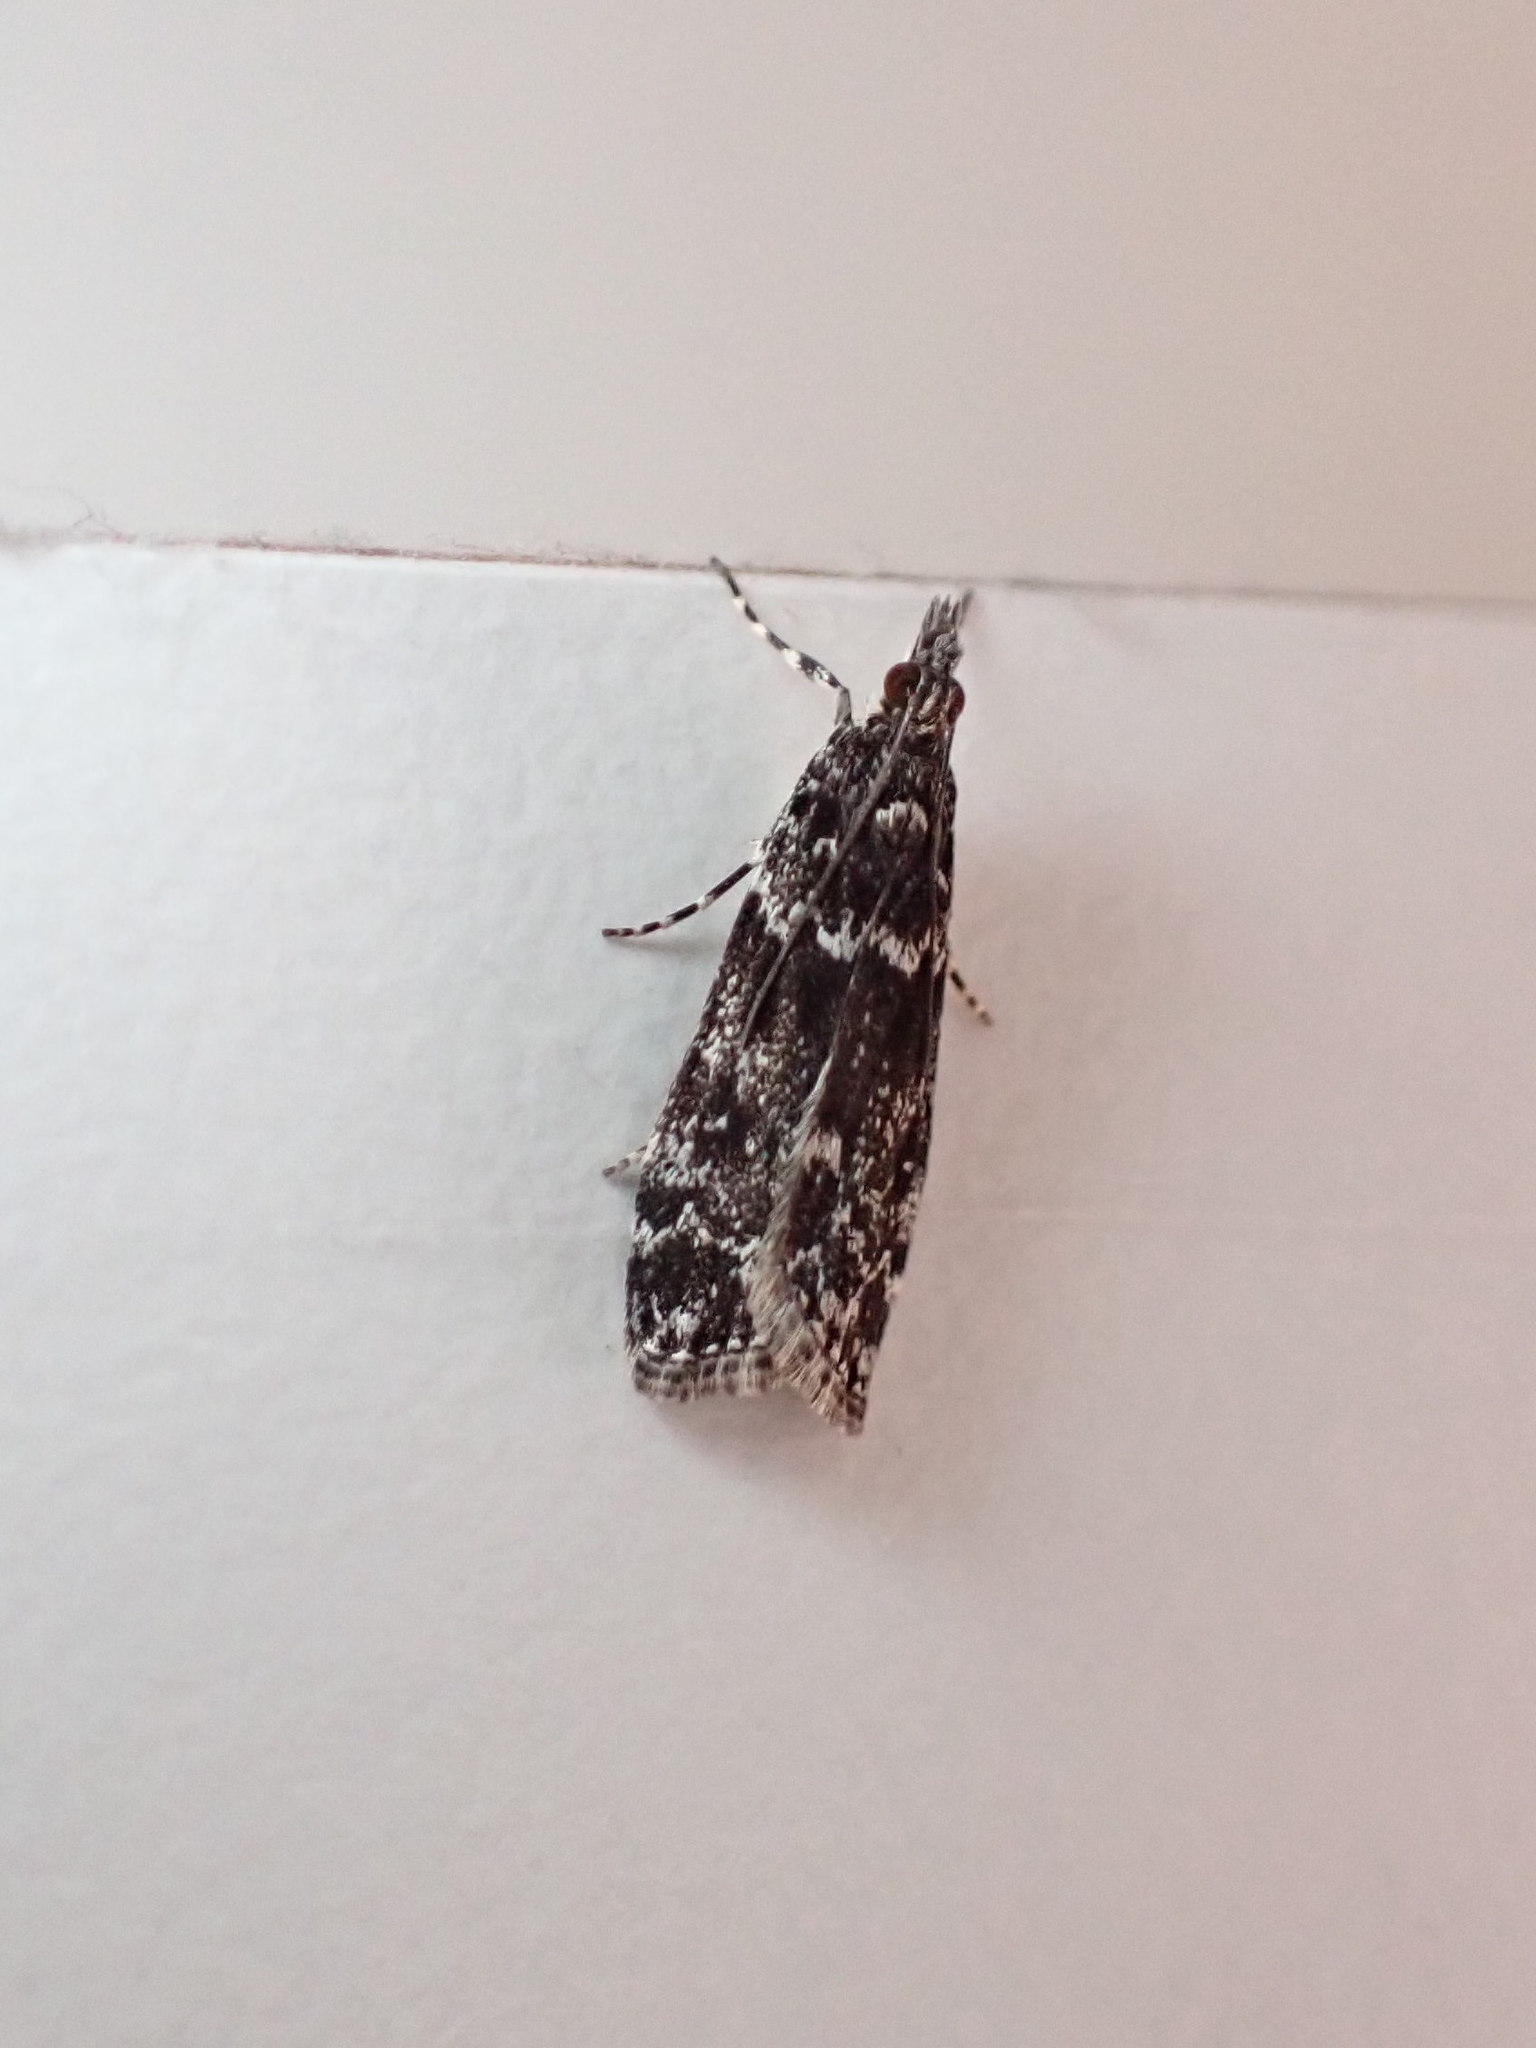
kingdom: Animalia
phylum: Arthropoda
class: Insecta
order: Lepidoptera
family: Crambidae
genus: Eudonia
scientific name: Eudonia philerga
